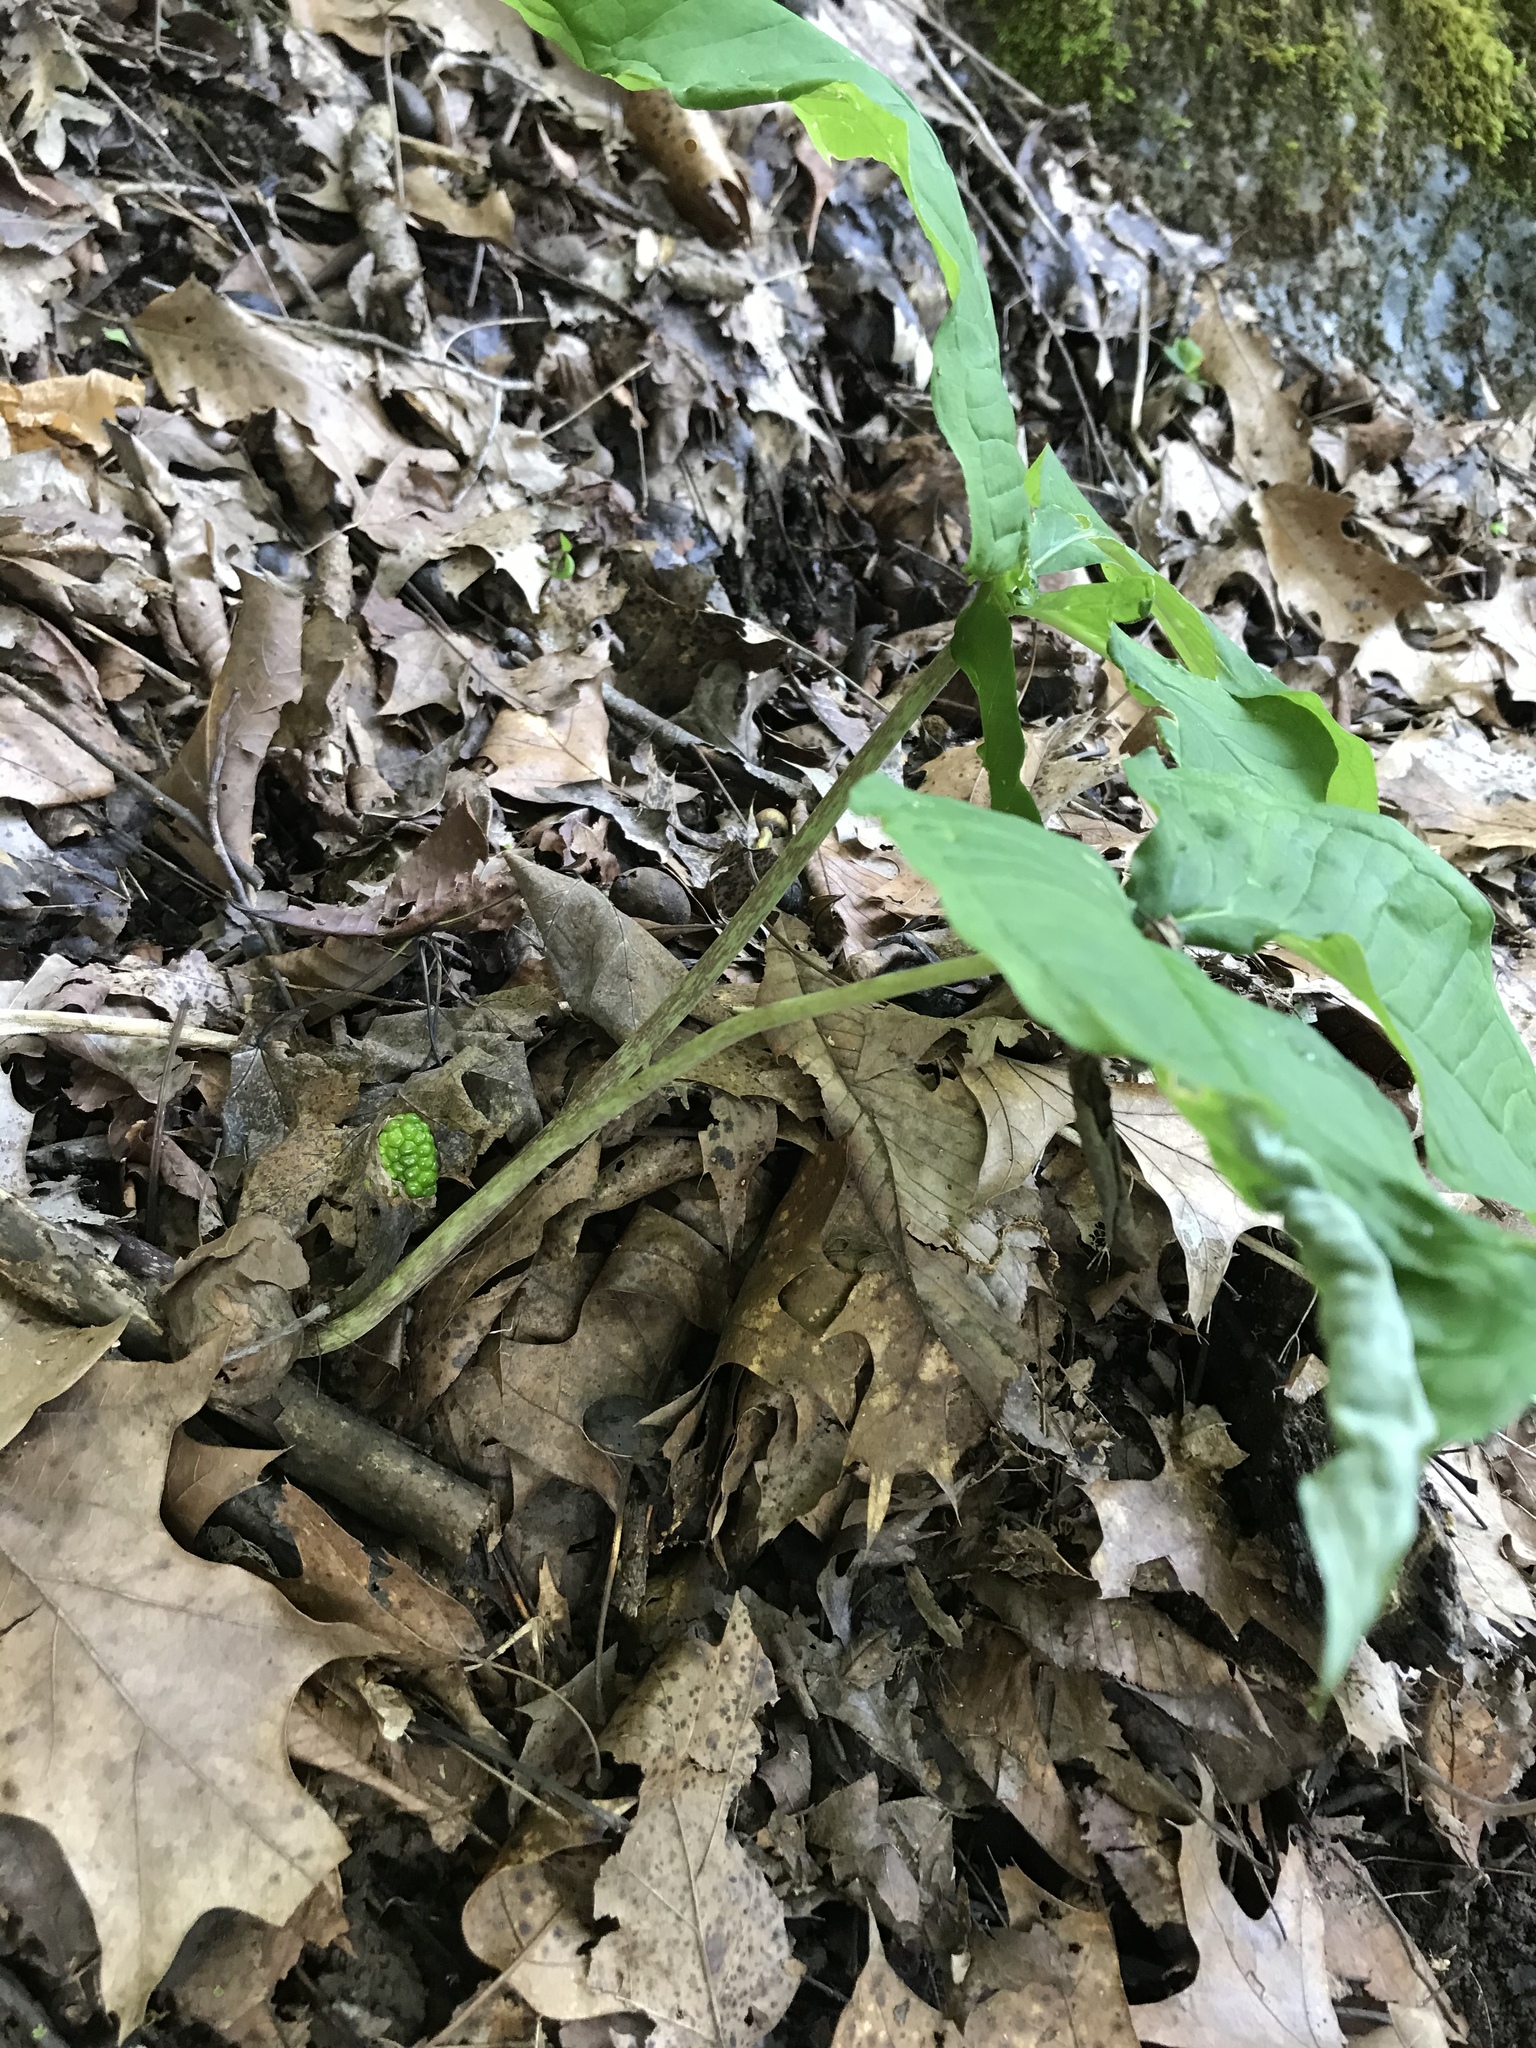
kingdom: Plantae
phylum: Tracheophyta
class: Liliopsida
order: Alismatales
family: Araceae
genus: Arisaema
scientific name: Arisaema triphyllum
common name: Jack-in-the-pulpit
